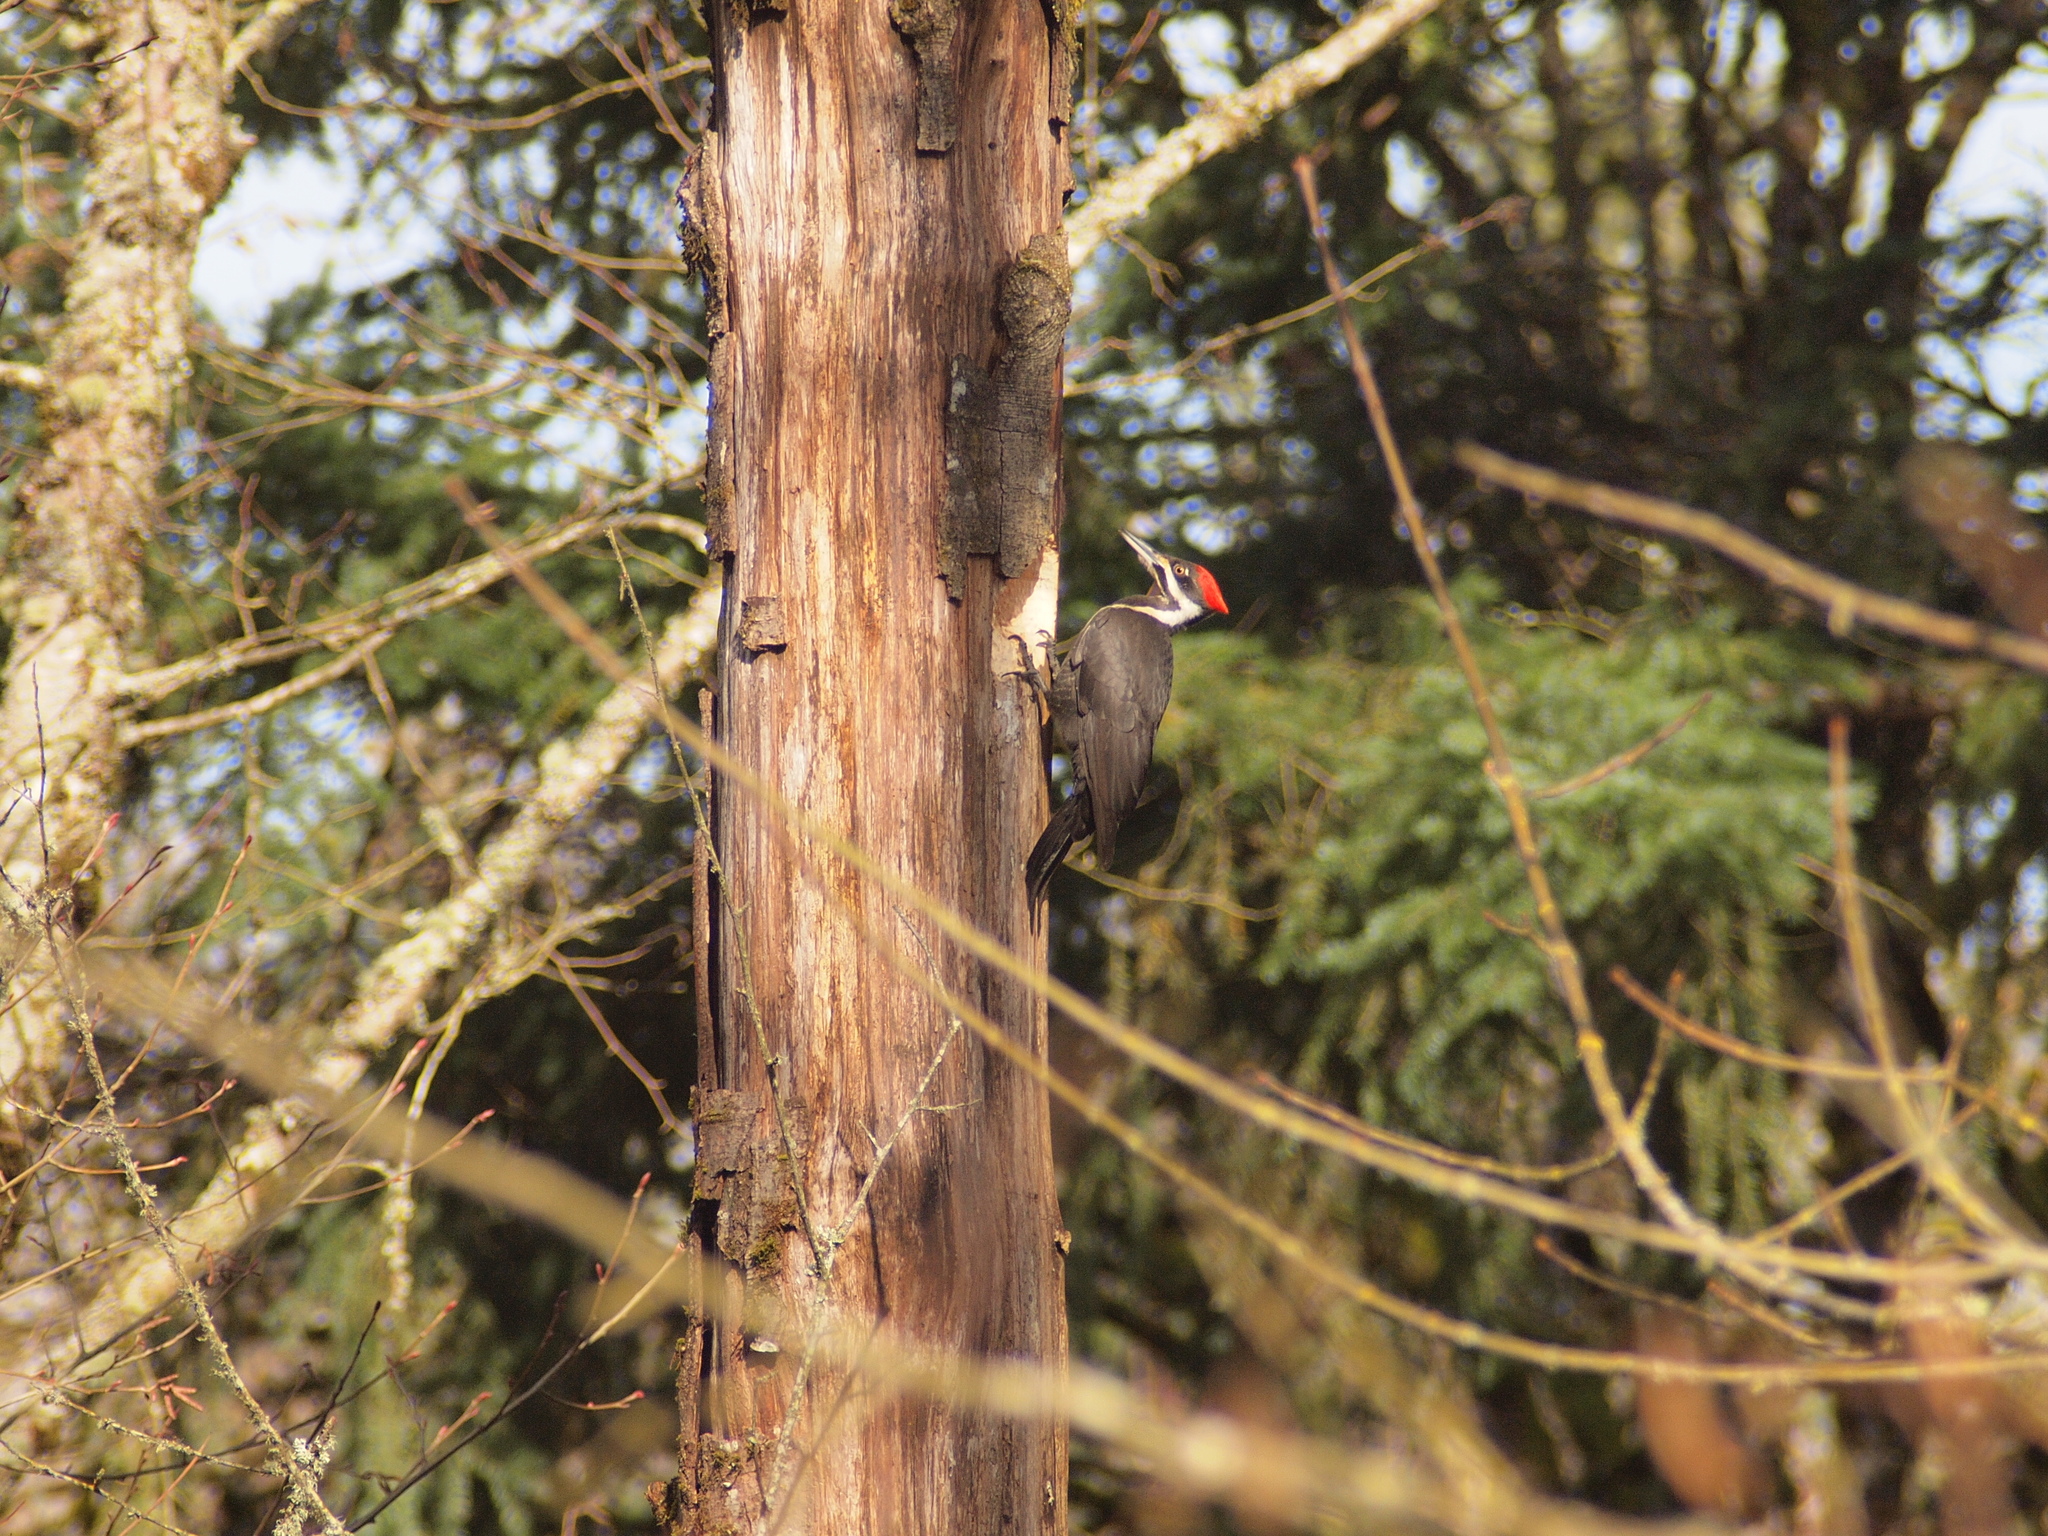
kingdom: Animalia
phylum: Chordata
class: Aves
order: Piciformes
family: Picidae
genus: Dryocopus
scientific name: Dryocopus pileatus
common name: Pileated woodpecker
